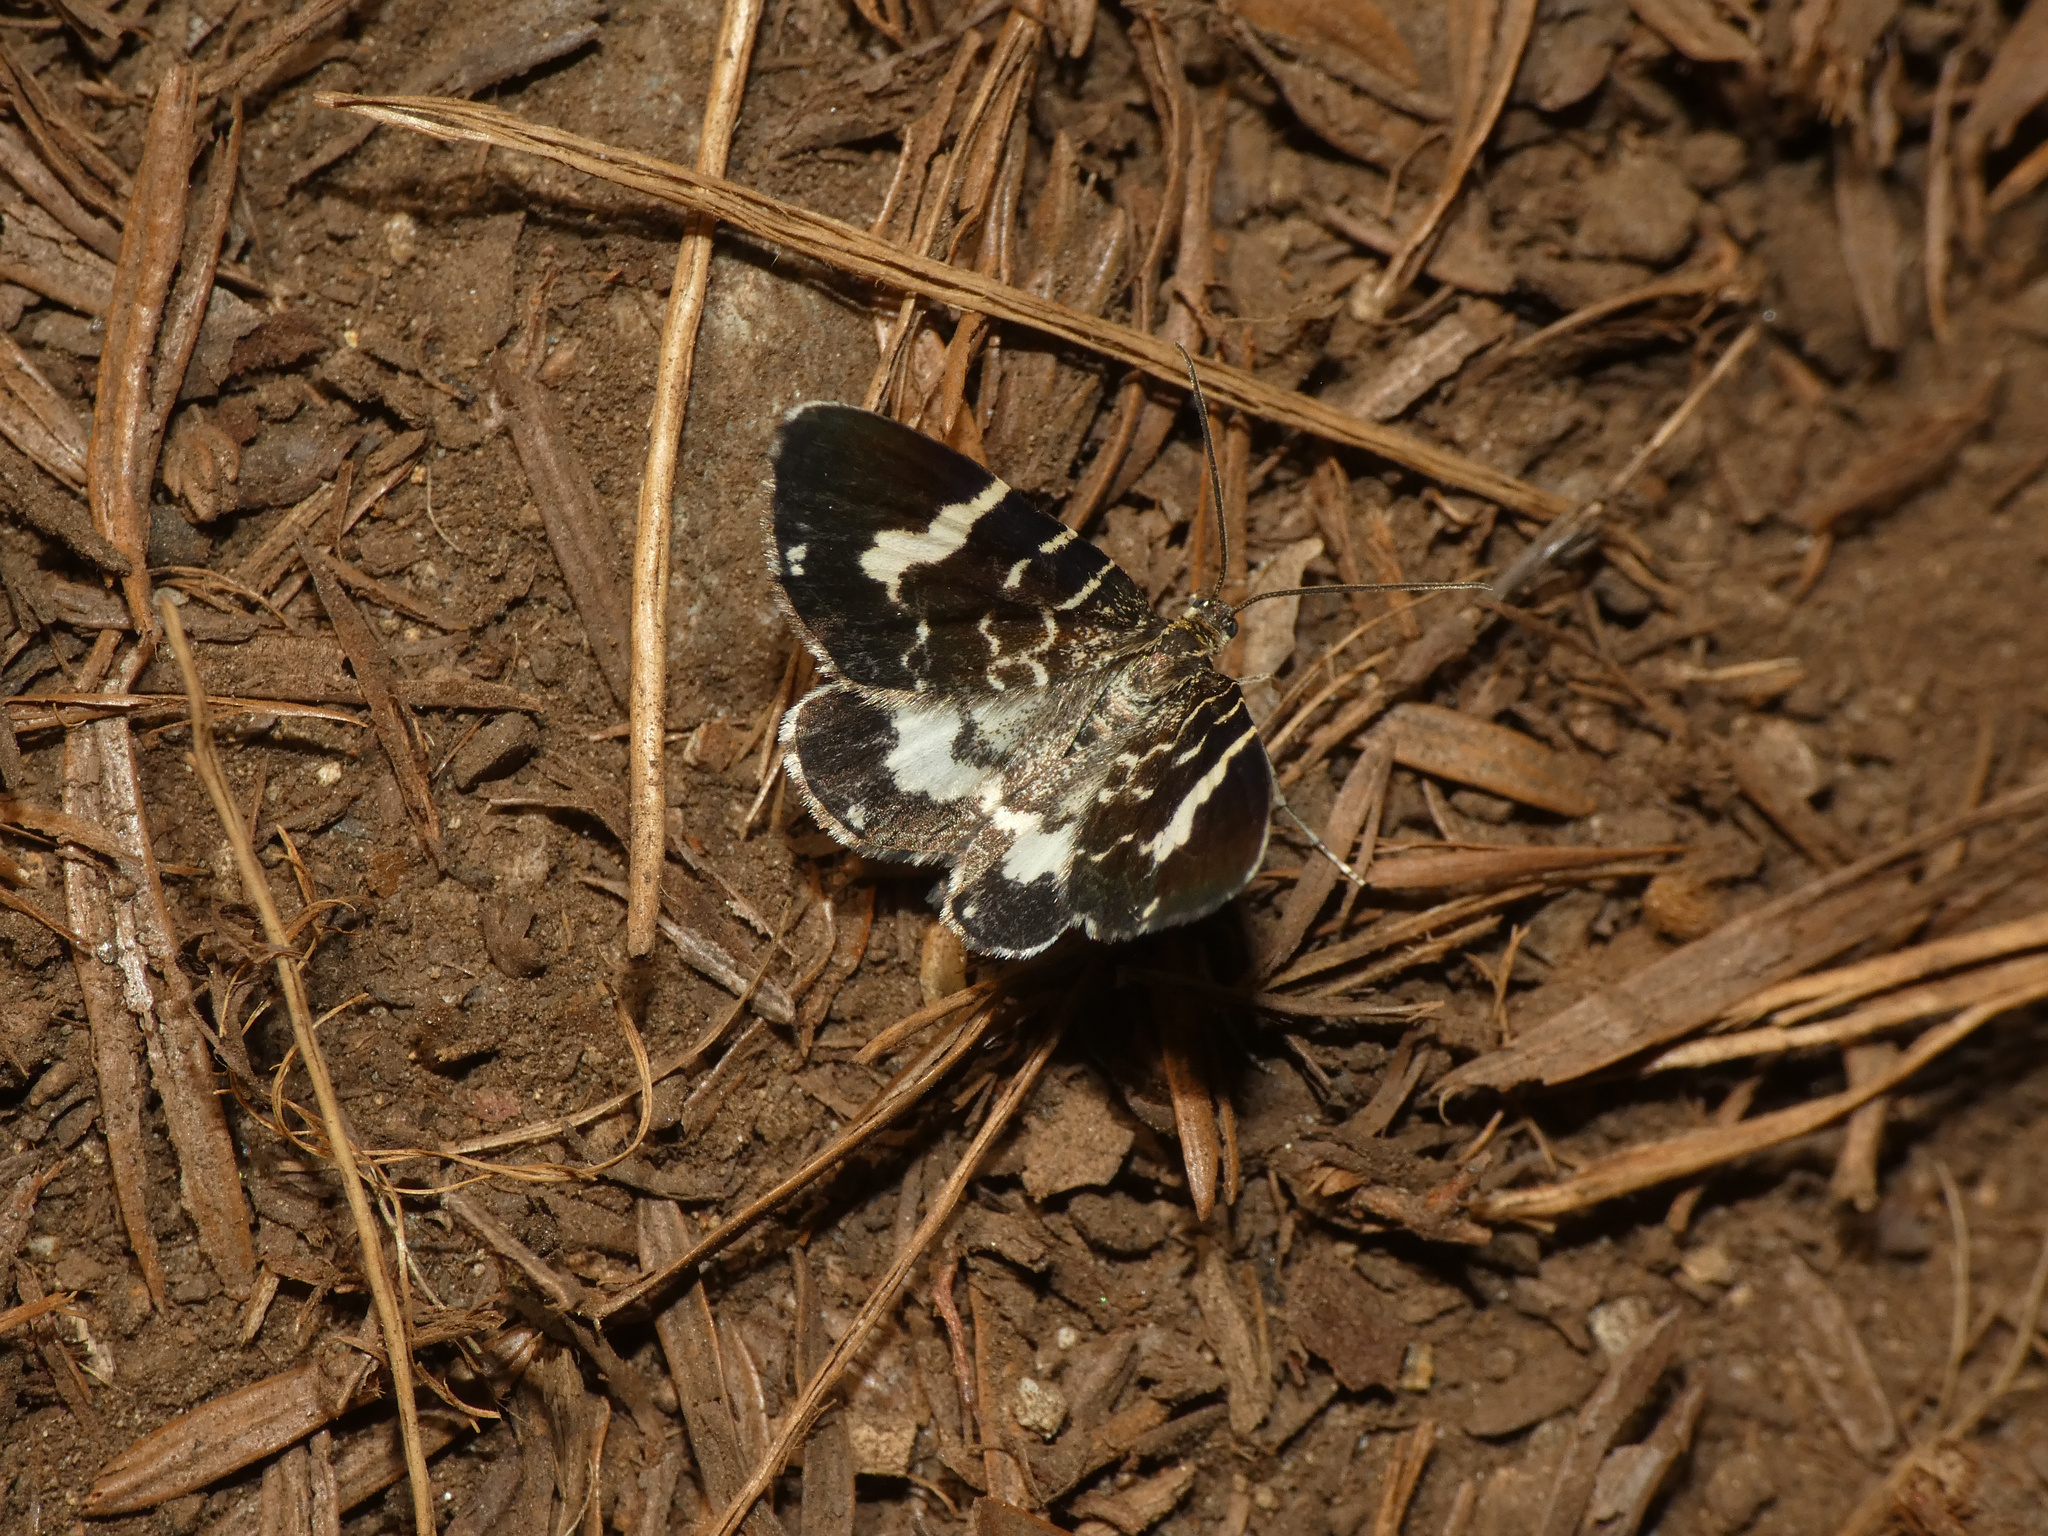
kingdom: Animalia
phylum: Arthropoda
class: Insecta
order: Lepidoptera
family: Geometridae
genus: Trichodezia
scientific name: Trichodezia californiata
